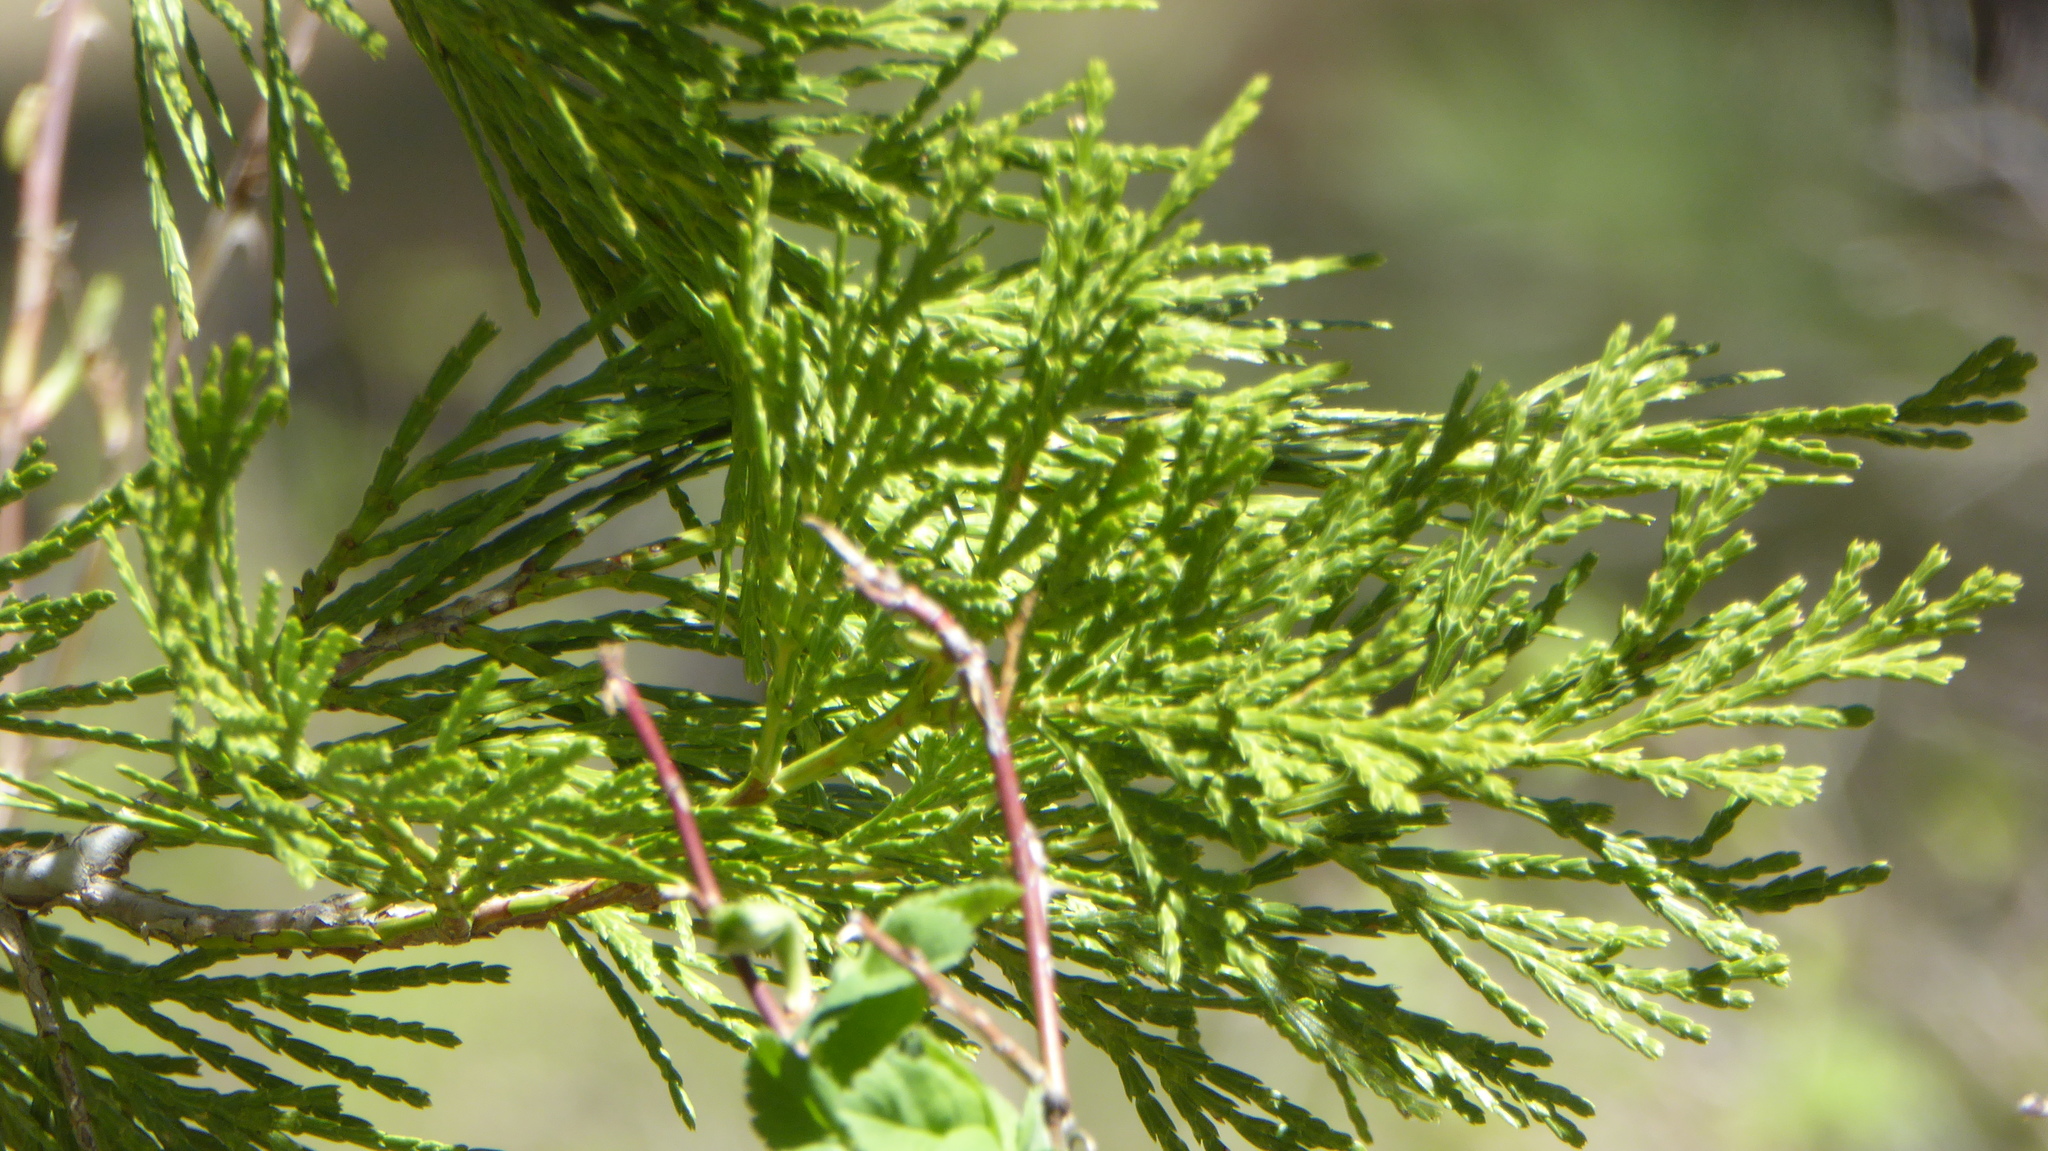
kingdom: Plantae
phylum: Tracheophyta
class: Pinopsida
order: Pinales
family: Cupressaceae
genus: Calocedrus
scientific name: Calocedrus decurrens
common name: Californian incense-cedar
